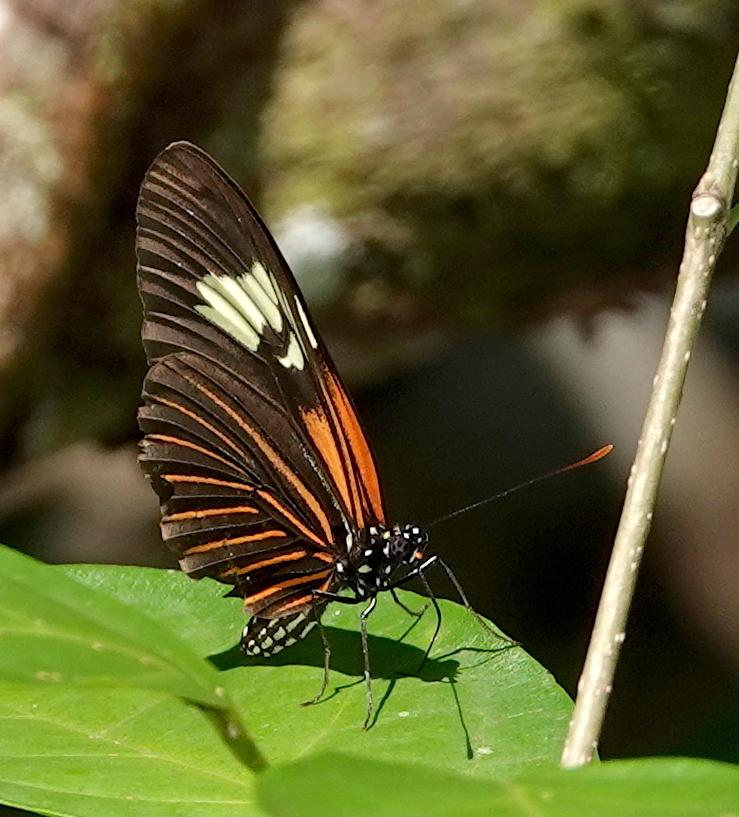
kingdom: Animalia
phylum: Arthropoda
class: Insecta
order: Lepidoptera
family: Nymphalidae
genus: Heliconius
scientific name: Heliconius aoede
